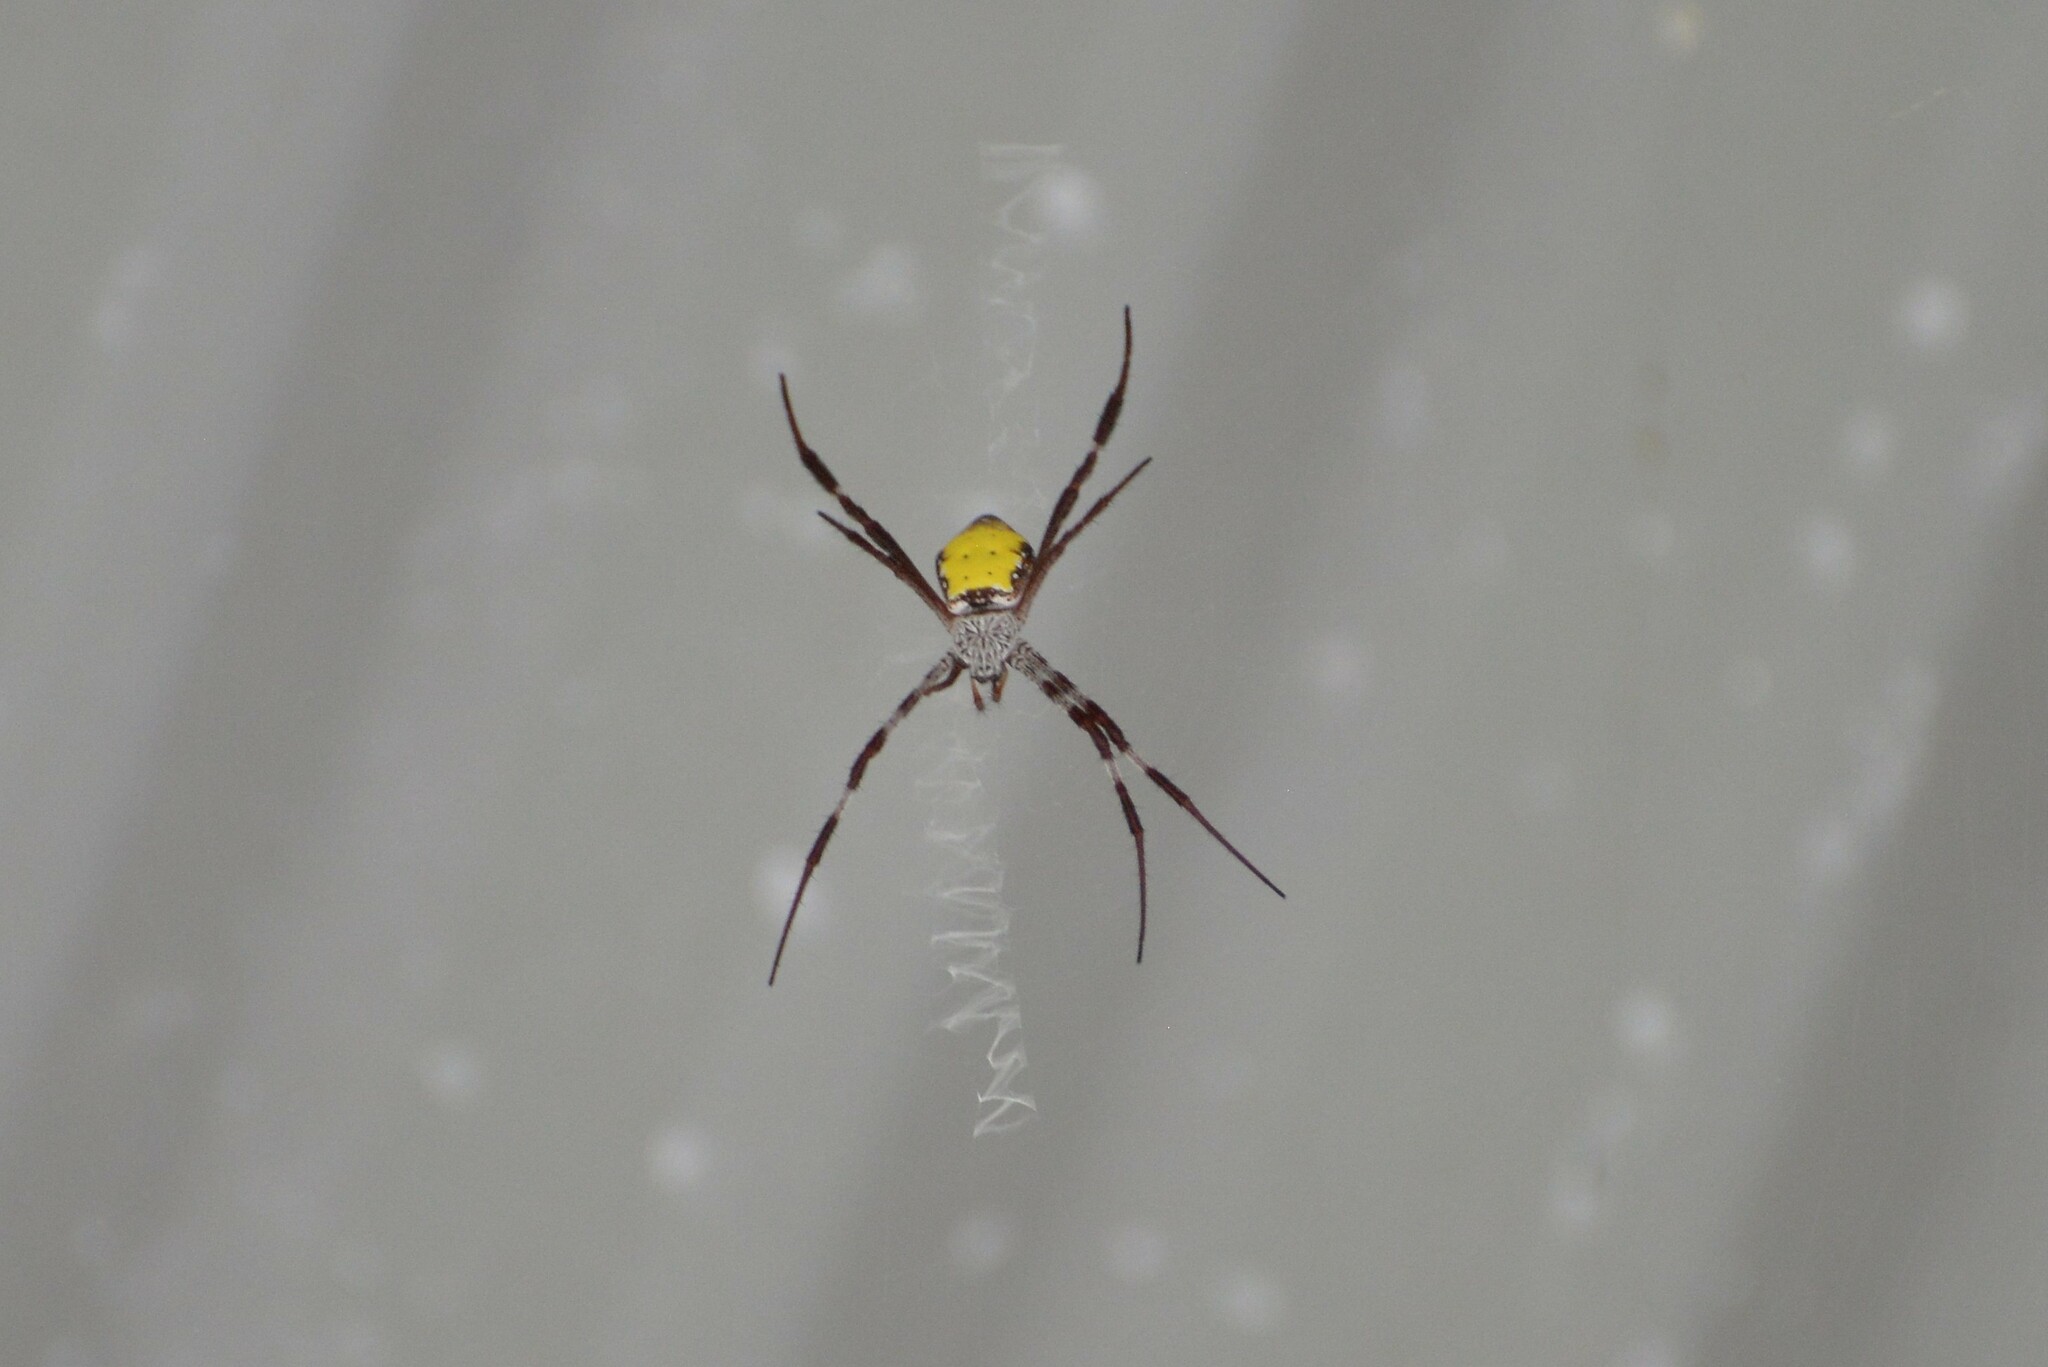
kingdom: Animalia
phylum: Arthropoda
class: Arachnida
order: Araneae
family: Araneidae
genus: Argiope
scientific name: Argiope aetherea
